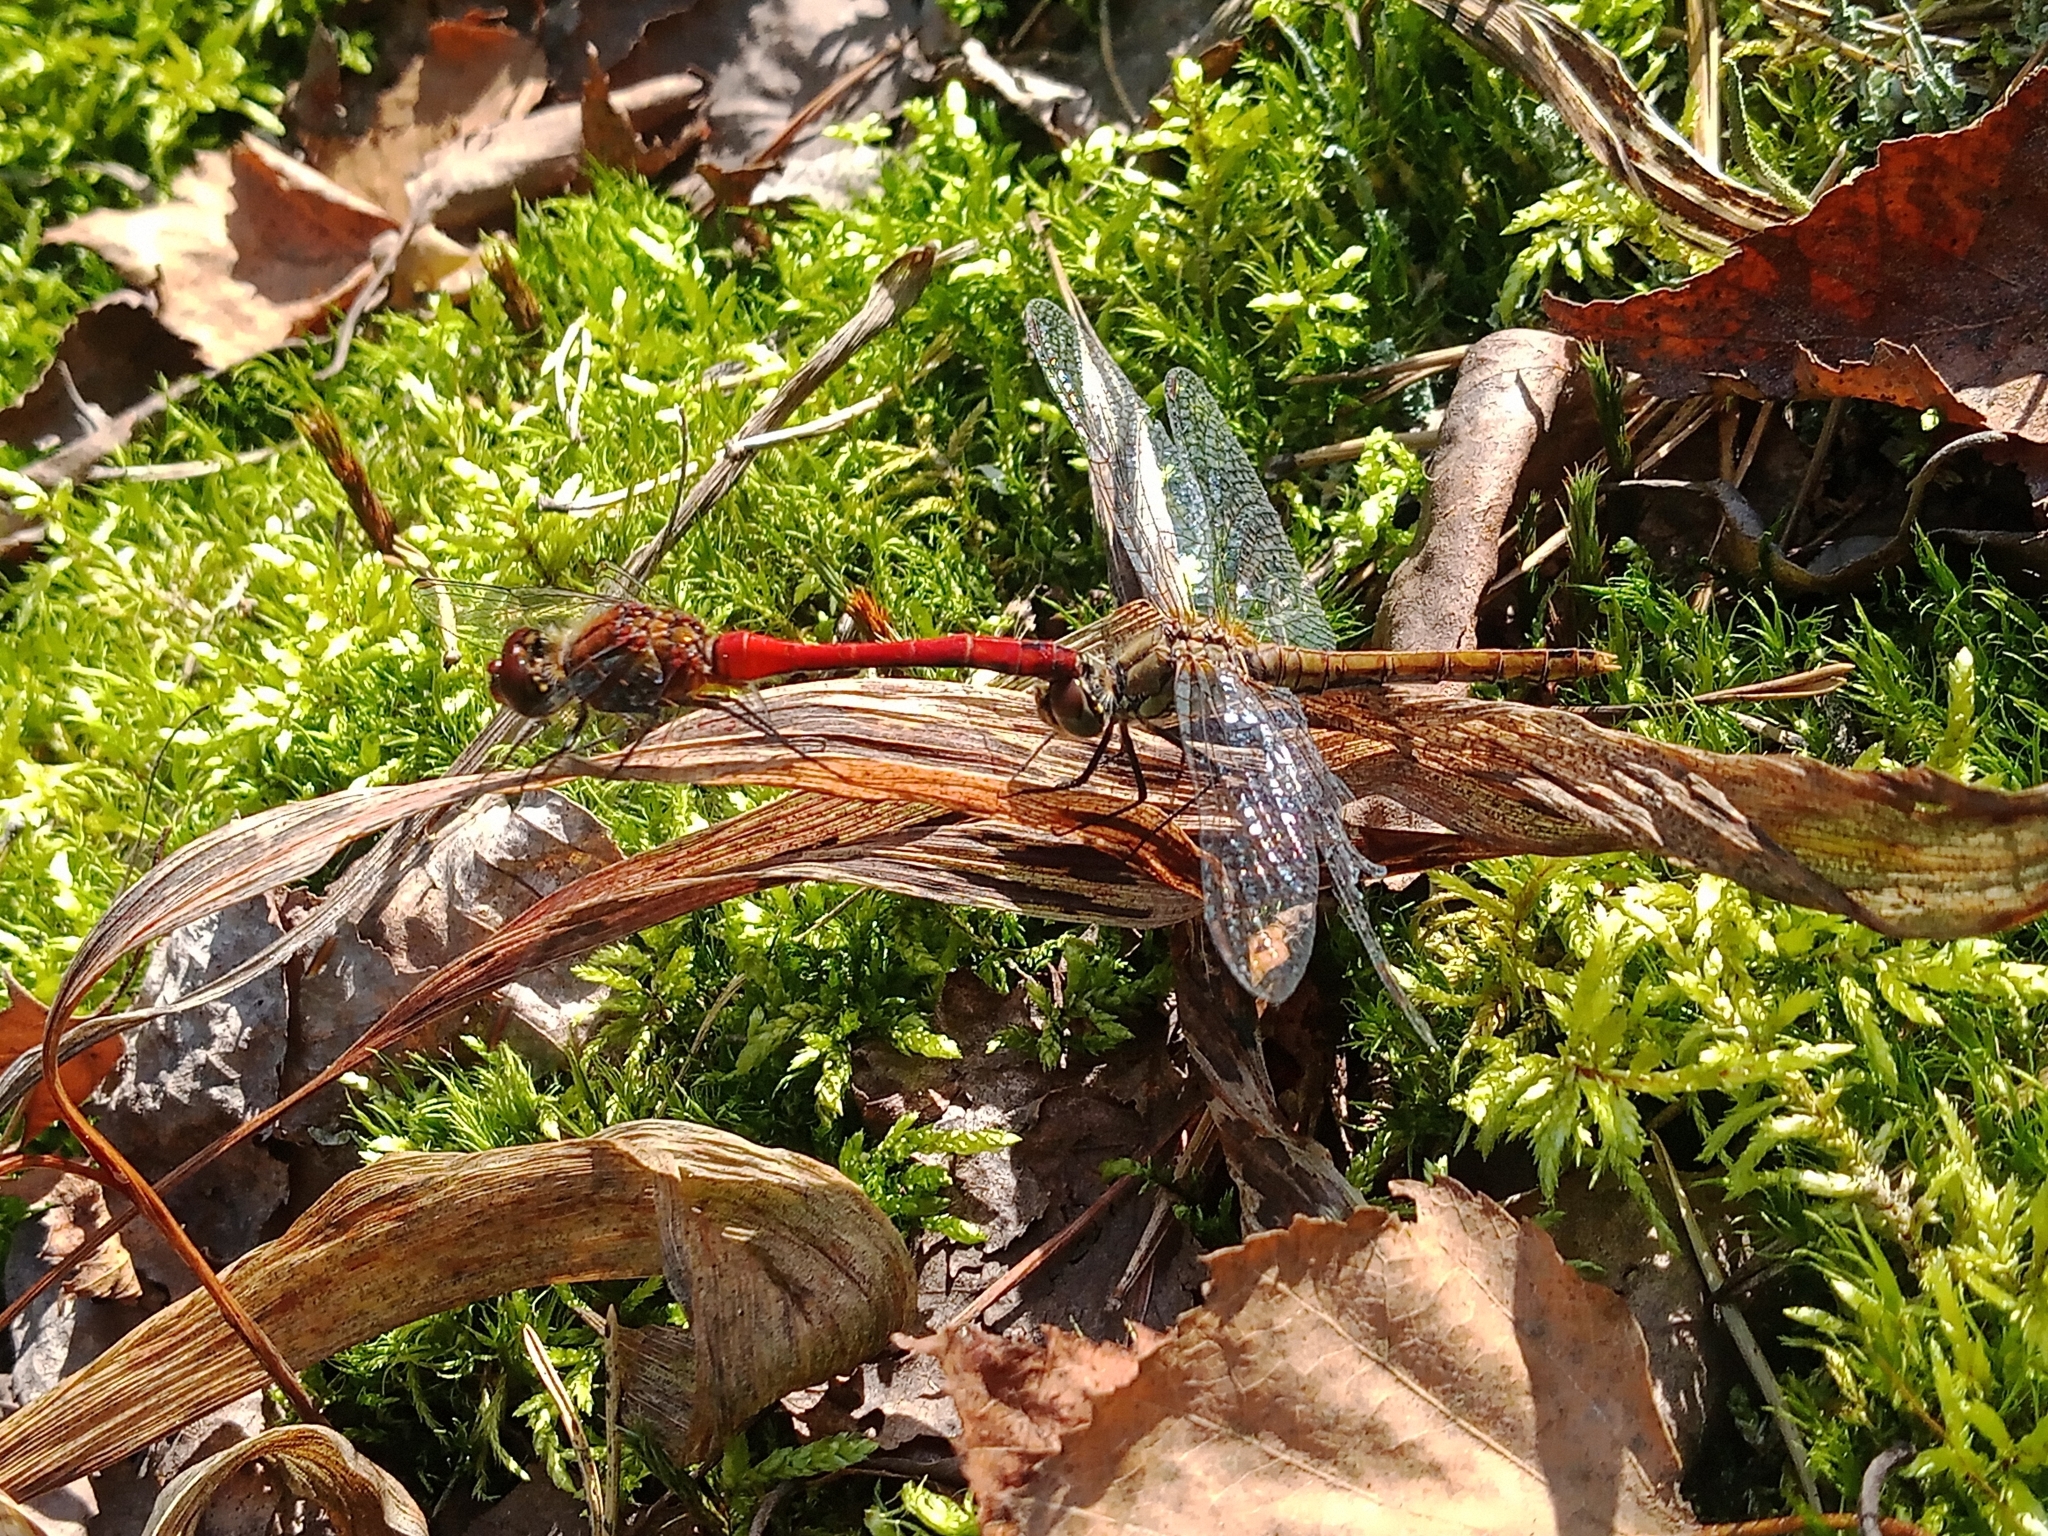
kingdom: Animalia
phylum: Arthropoda
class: Insecta
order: Odonata
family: Libellulidae
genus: Sympetrum
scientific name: Sympetrum sanguineum
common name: Ruddy darter
